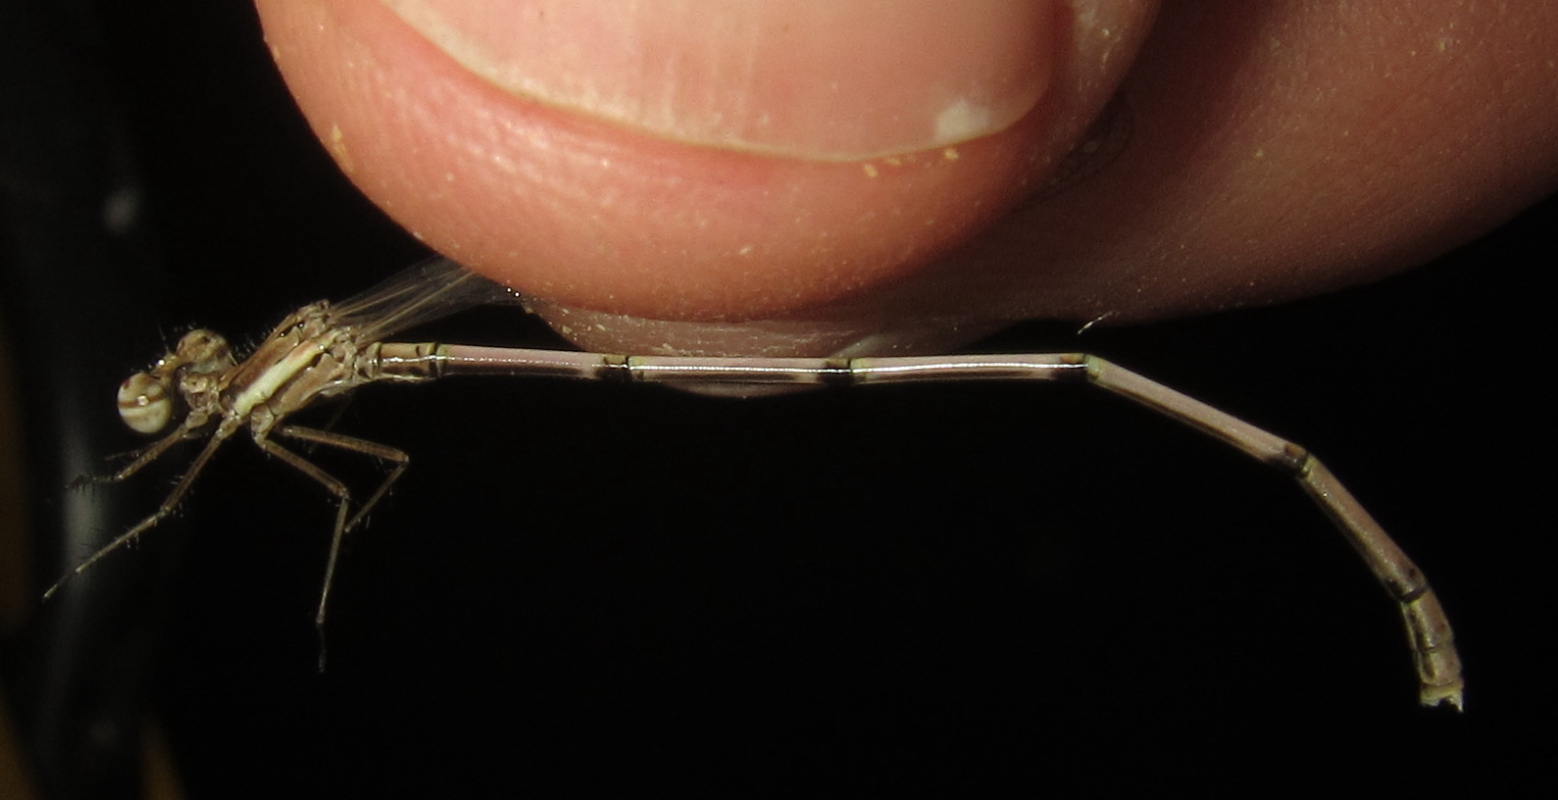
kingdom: Animalia
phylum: Arthropoda
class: Insecta
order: Odonata
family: Platycnemididae
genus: Elattoneura
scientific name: Elattoneura glauca
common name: Common threadtail
